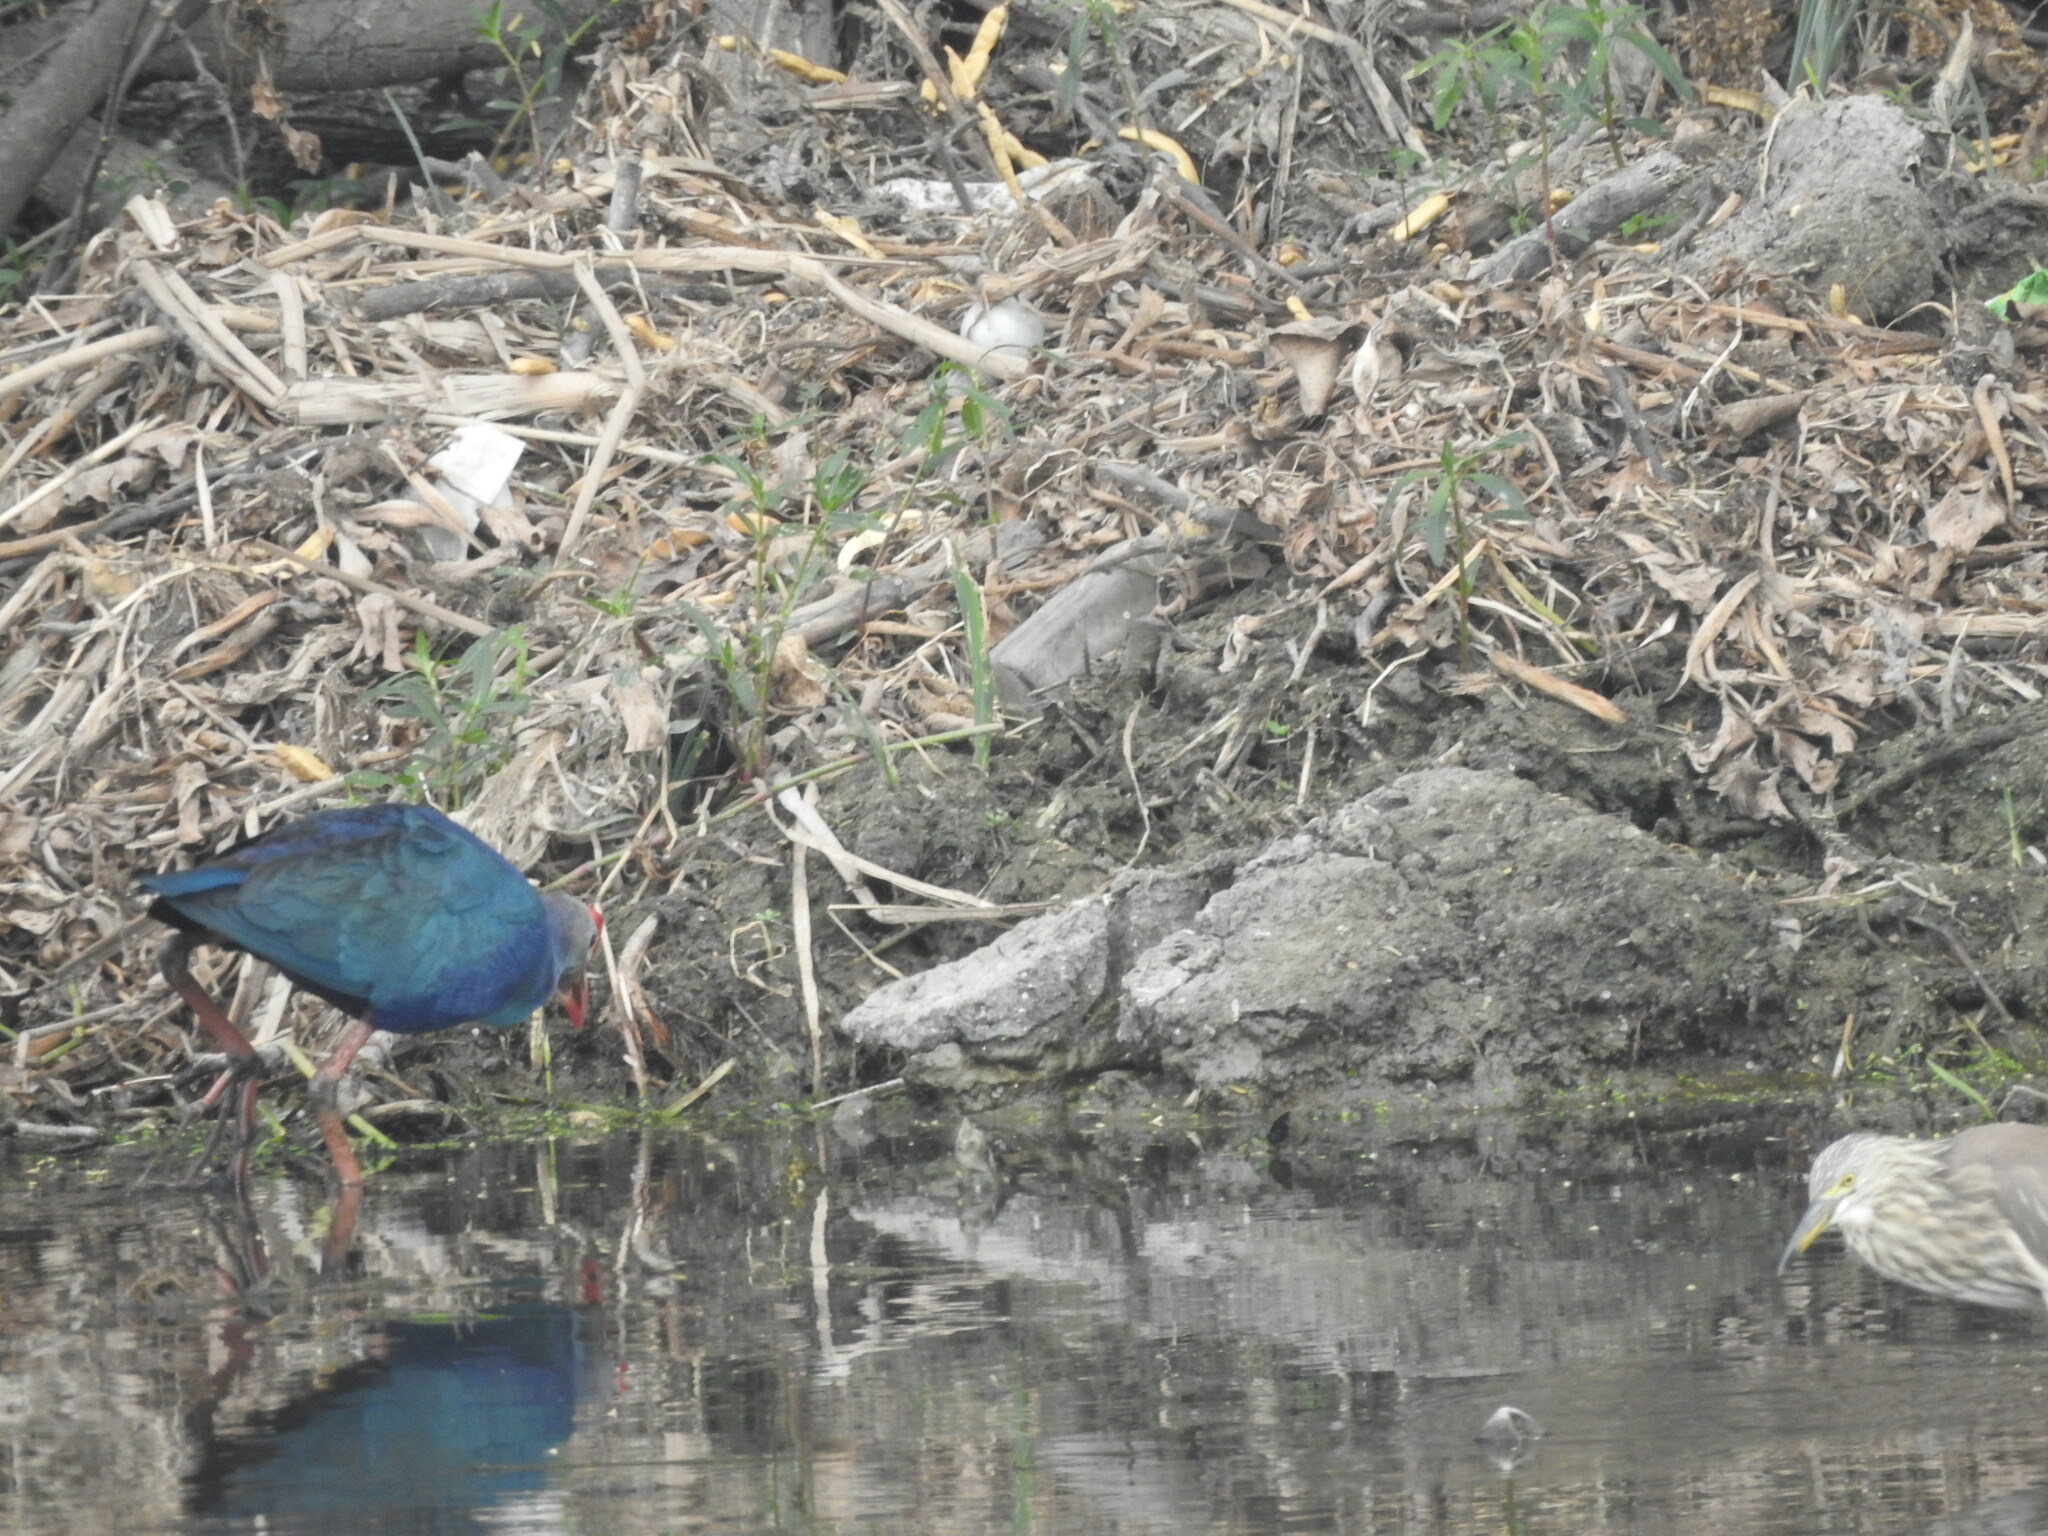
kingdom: Animalia
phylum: Chordata
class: Aves
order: Gruiformes
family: Rallidae
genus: Porphyrio
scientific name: Porphyrio porphyrio
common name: Purple swamphen
